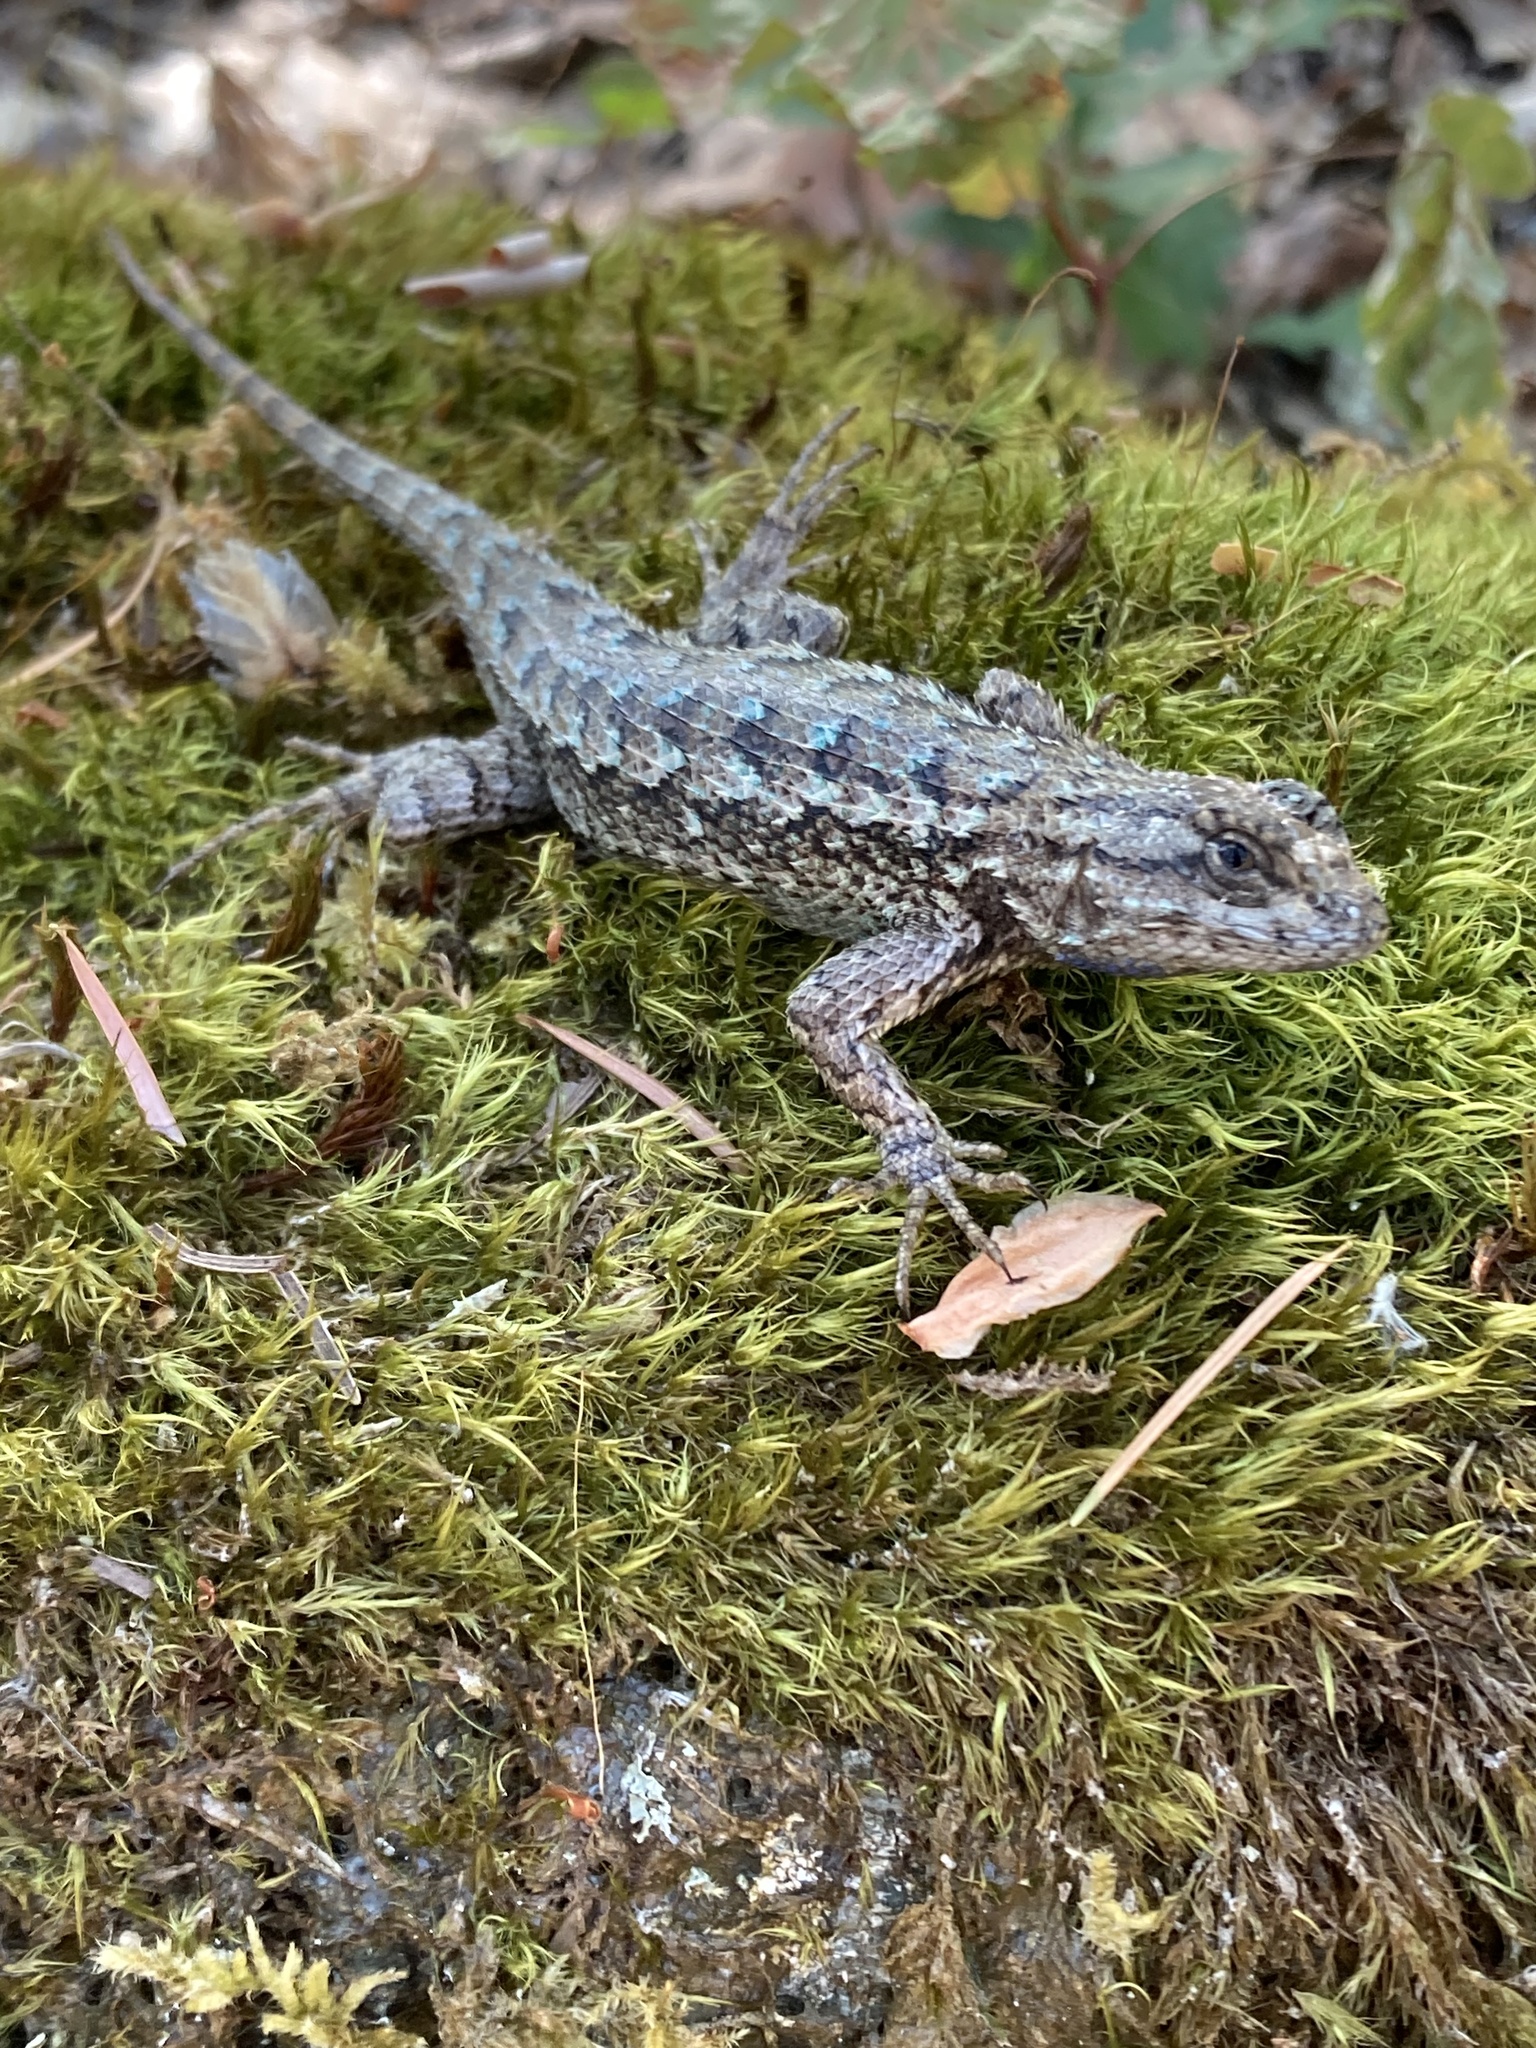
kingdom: Animalia
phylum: Chordata
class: Squamata
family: Phrynosomatidae
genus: Sceloporus
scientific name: Sceloporus occidentalis
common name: Western fence lizard
